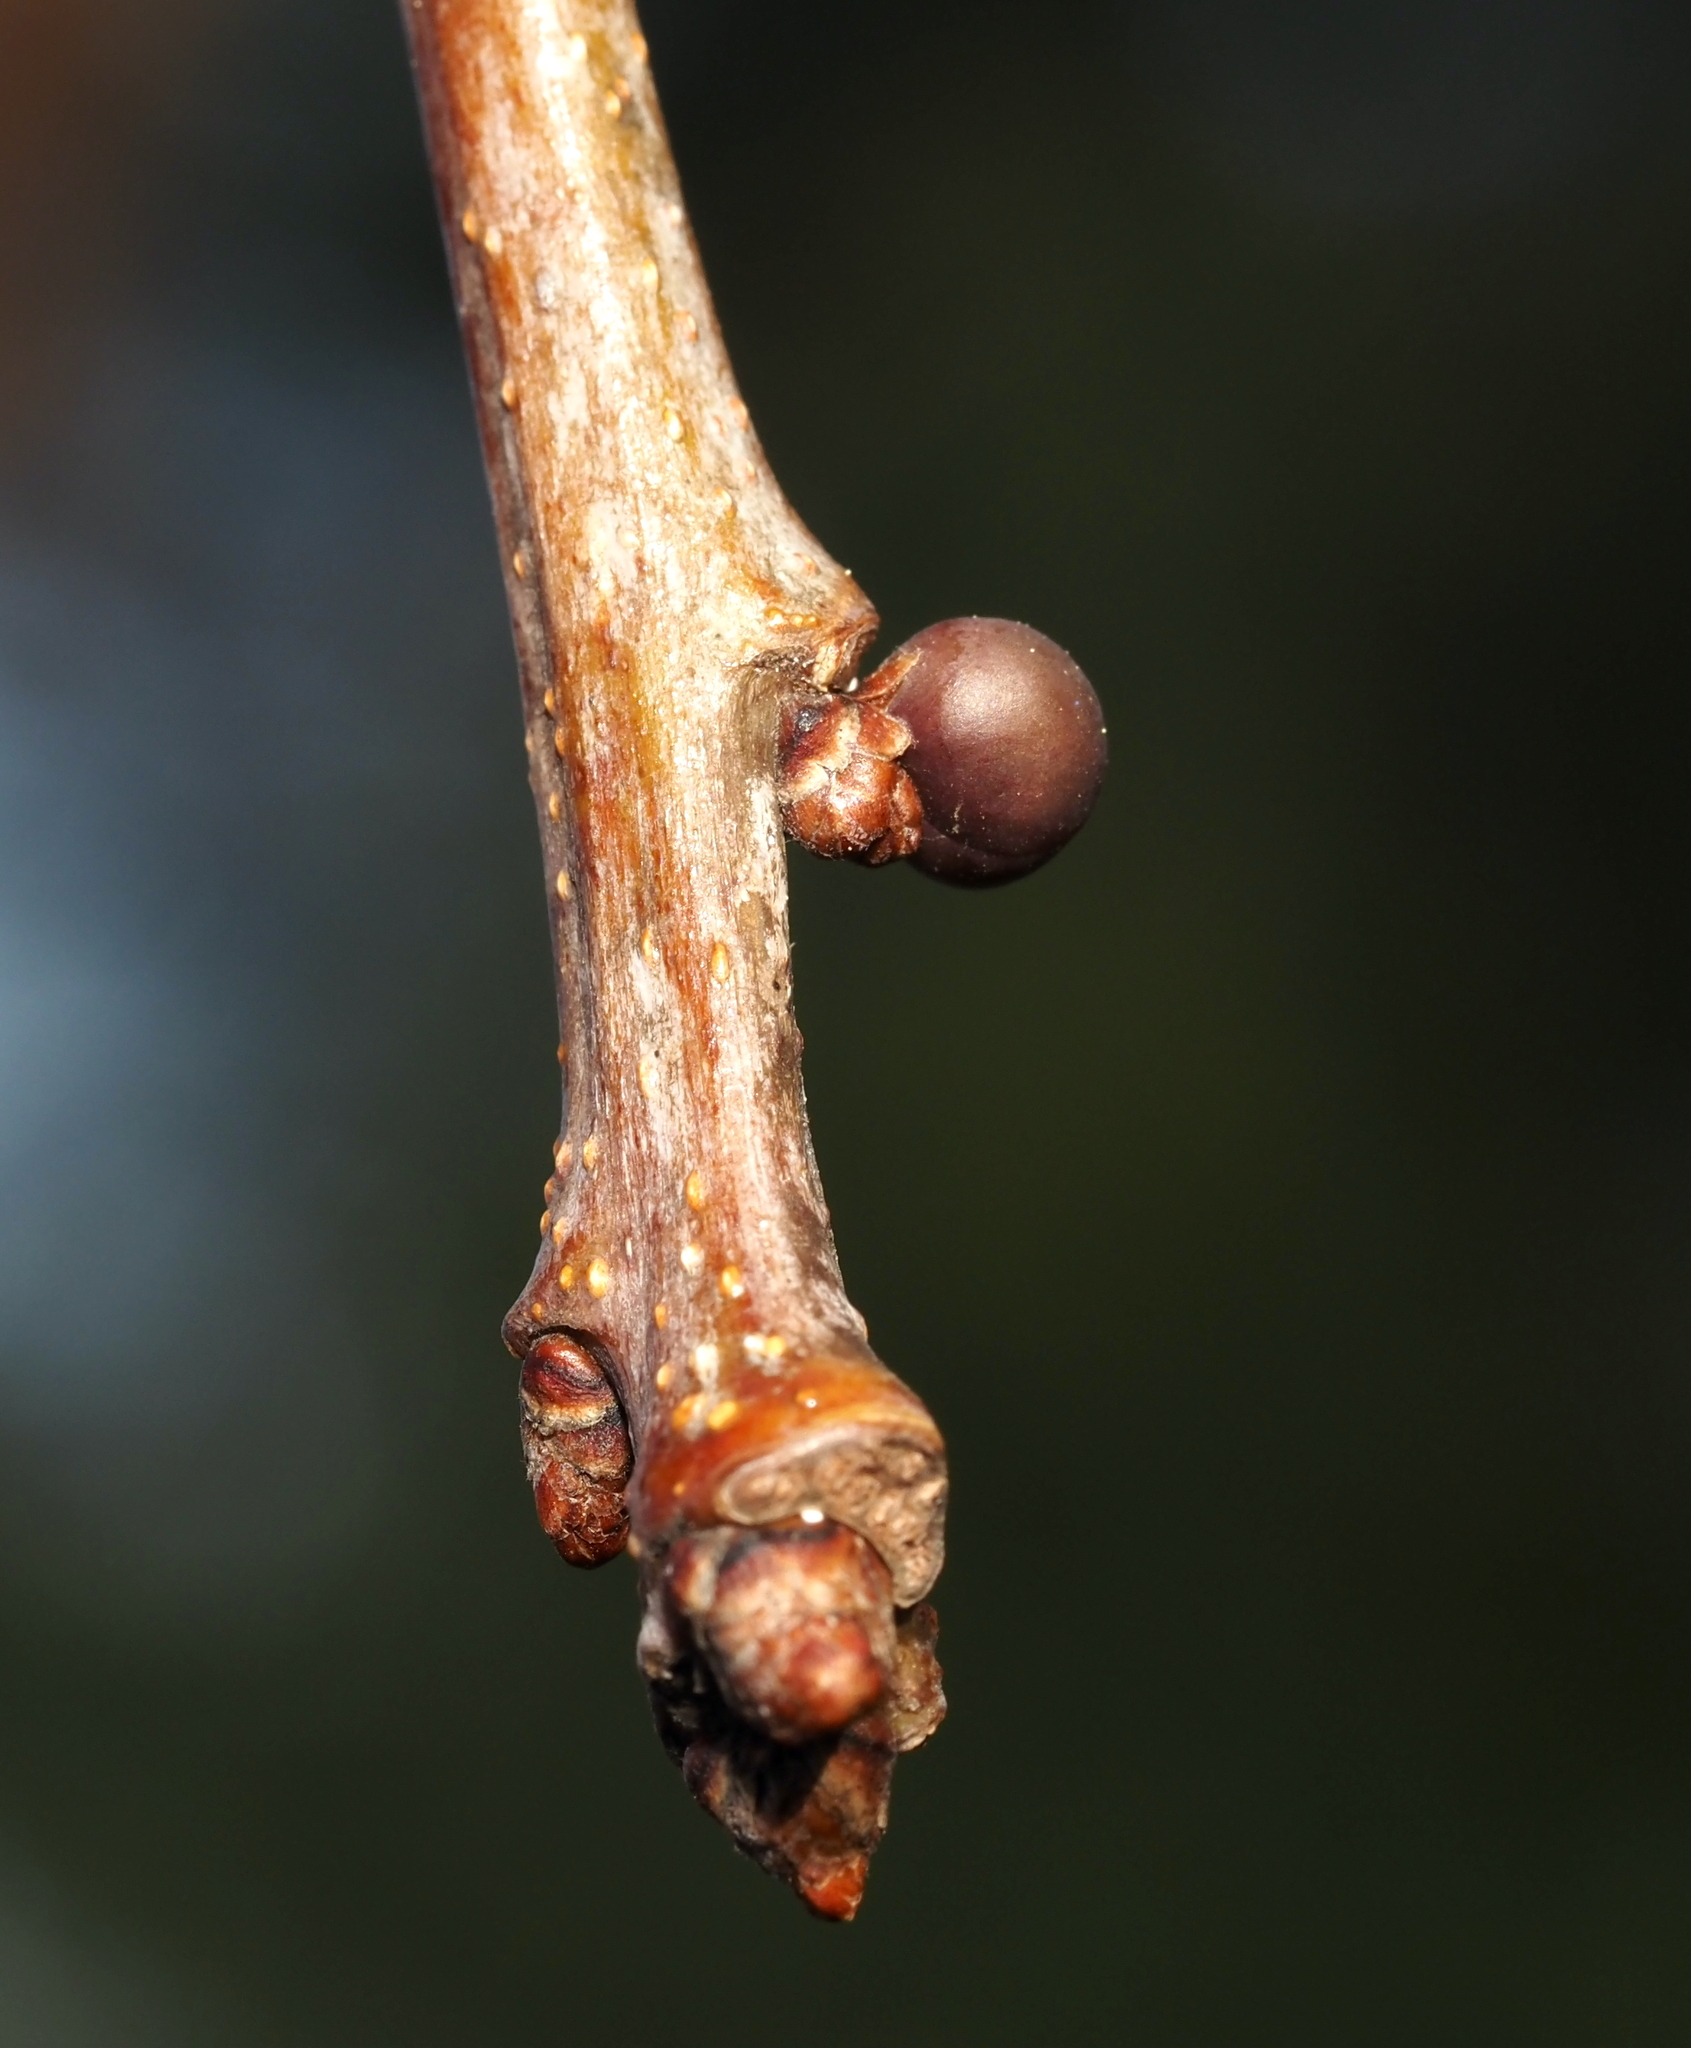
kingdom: Animalia
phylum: Arthropoda
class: Insecta
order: Hymenoptera
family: Cynipidae
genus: Neuroterus
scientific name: Neuroterus
